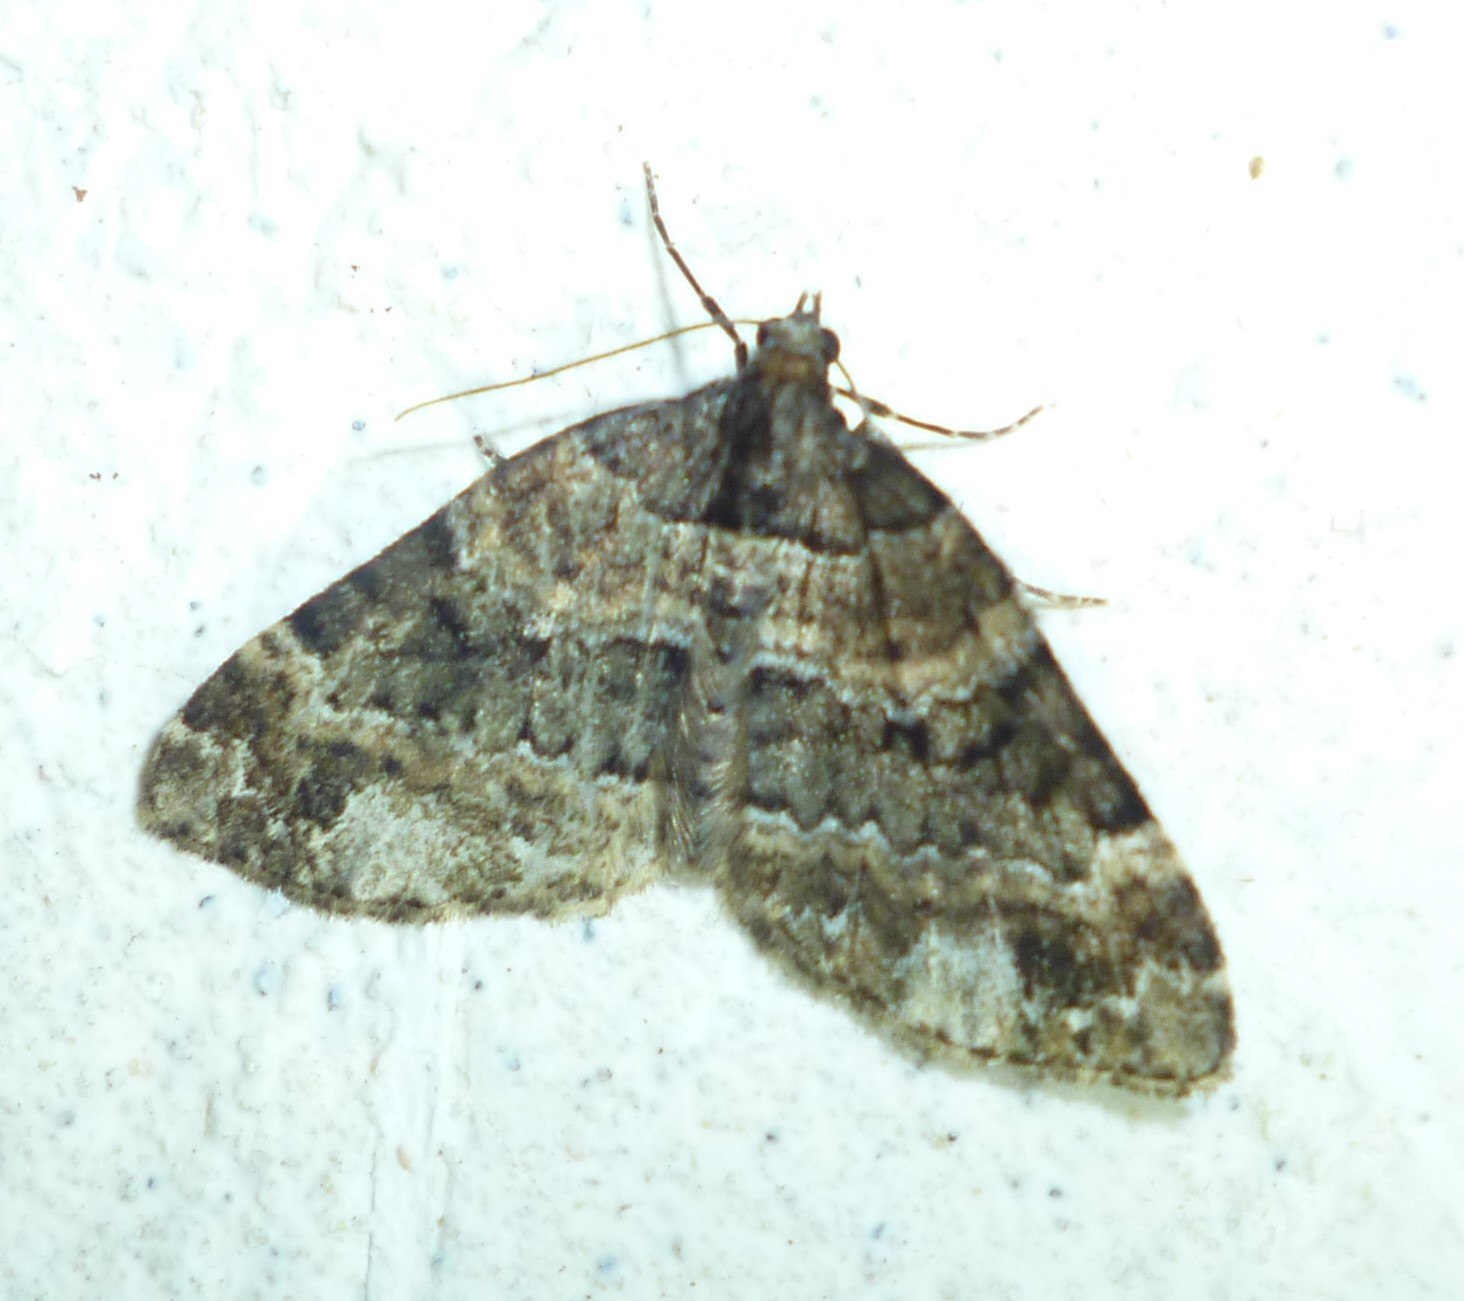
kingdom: Animalia
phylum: Arthropoda
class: Insecta
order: Lepidoptera
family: Geometridae
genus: Martania
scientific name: Martania
